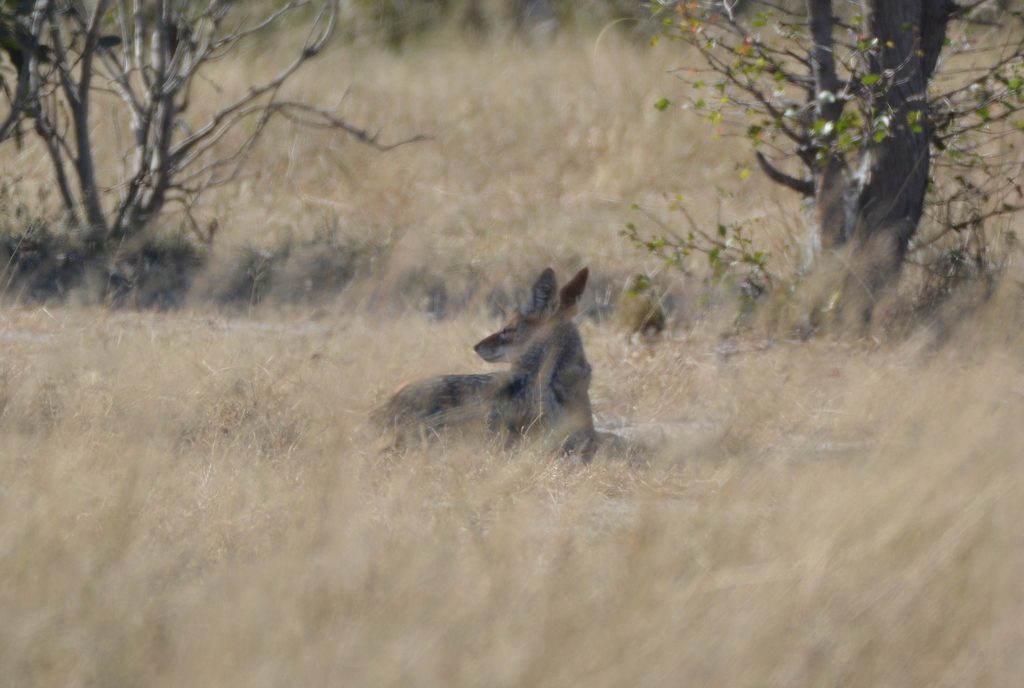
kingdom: Animalia
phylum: Chordata
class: Mammalia
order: Carnivora
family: Canidae
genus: Lupulella
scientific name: Lupulella
